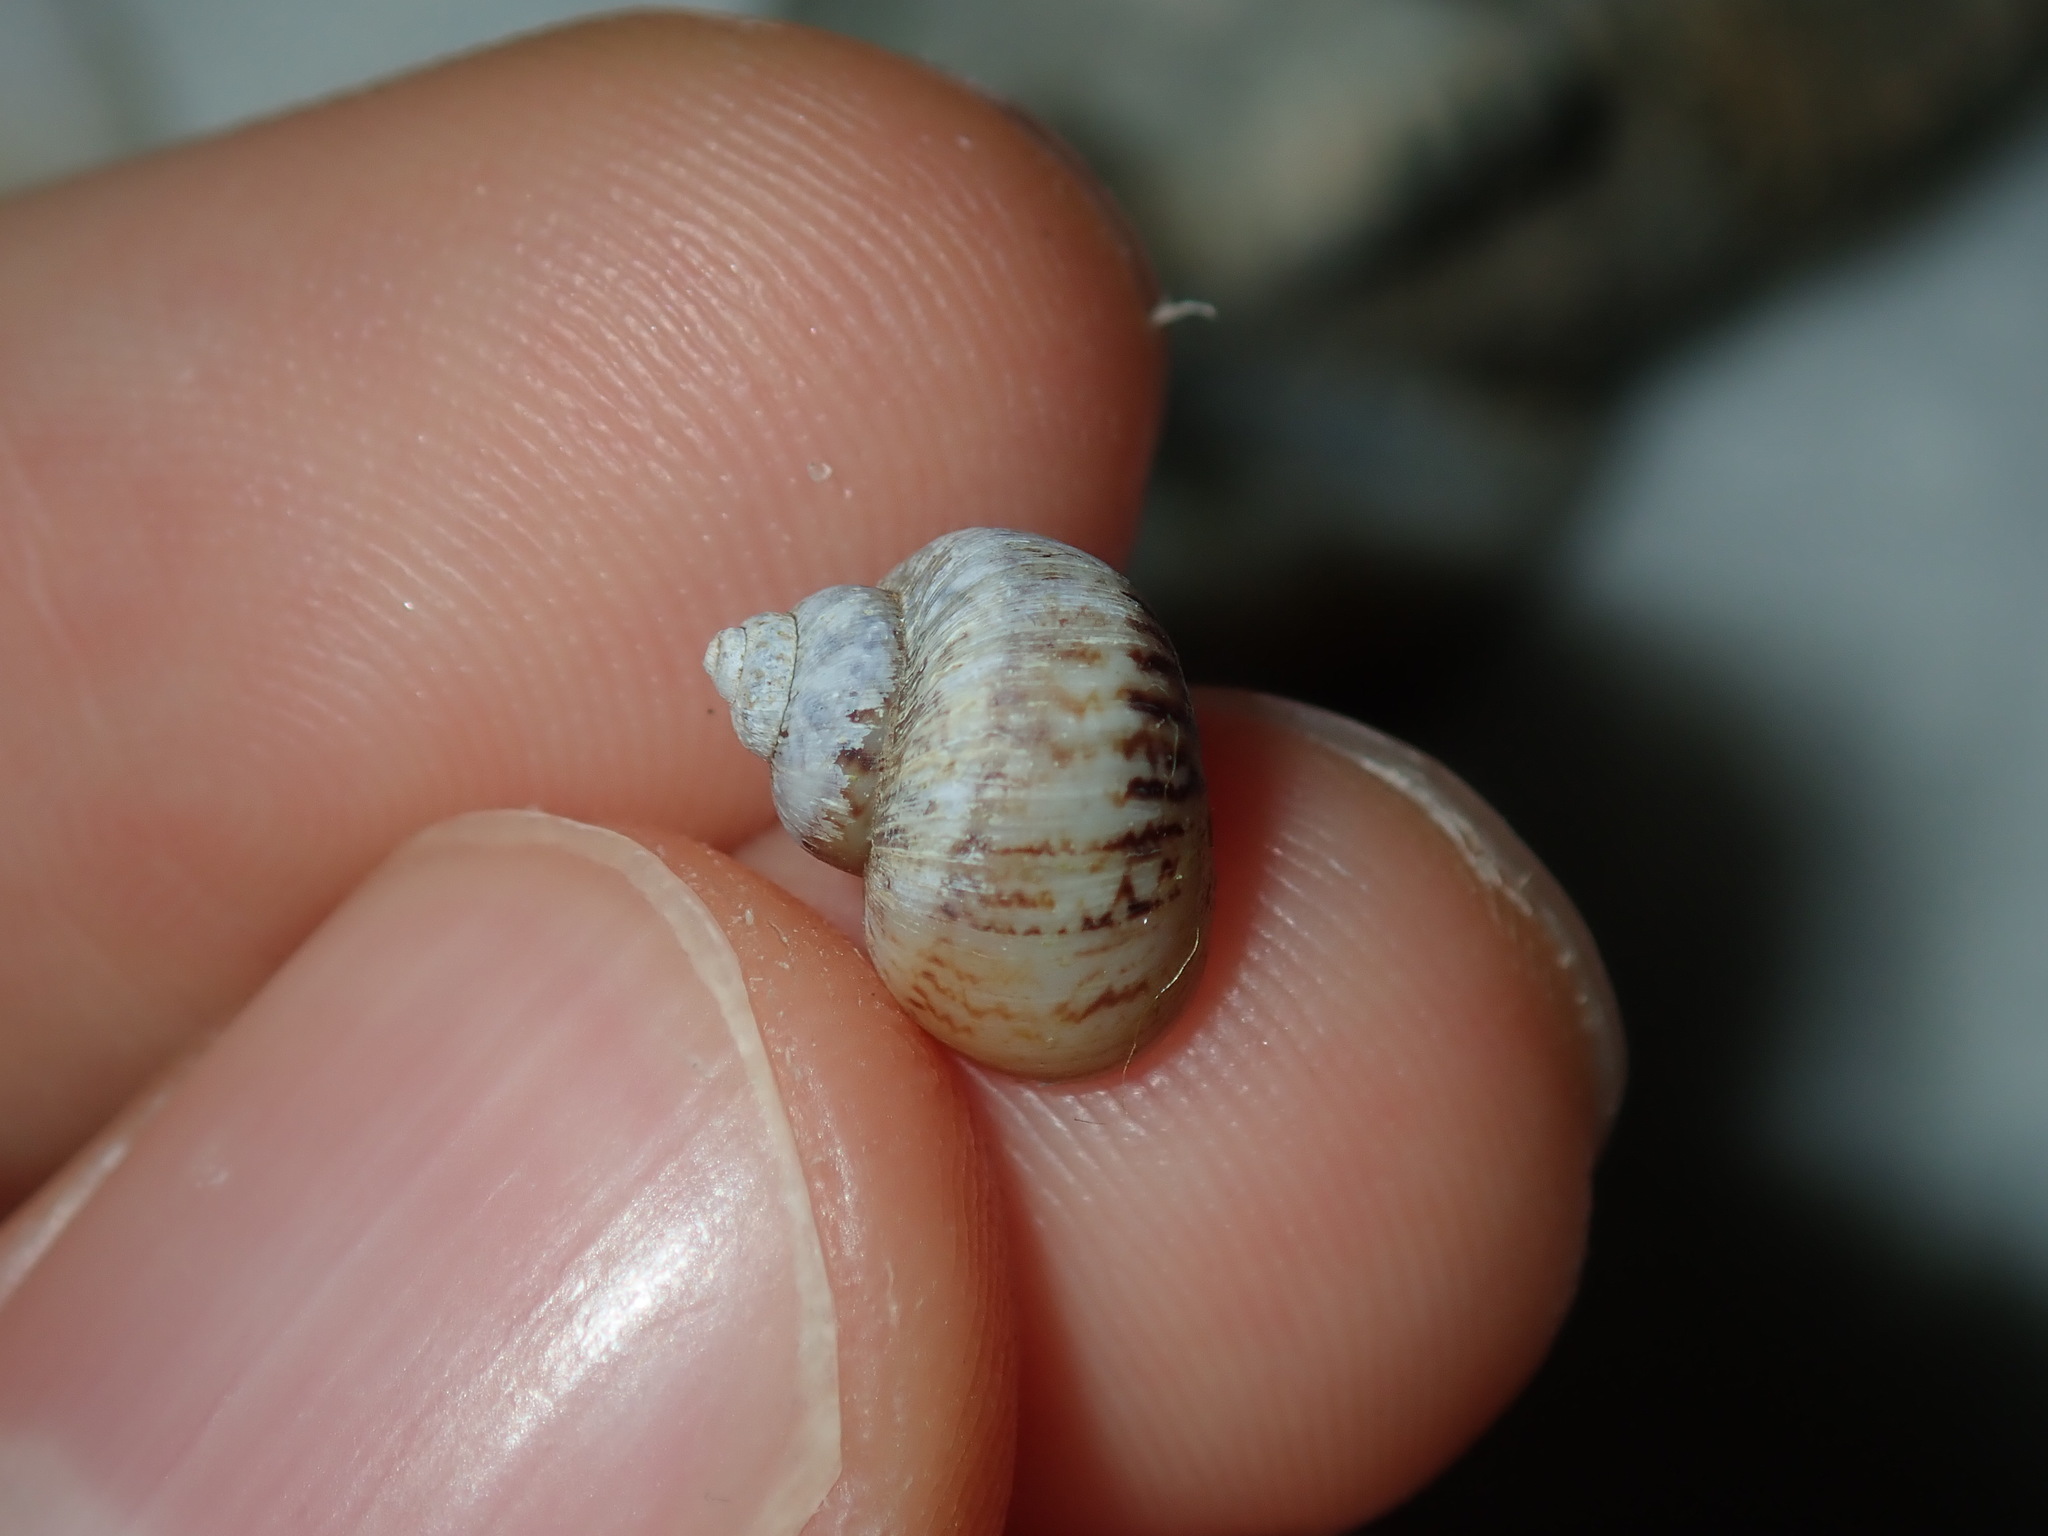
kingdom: Animalia
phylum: Mollusca
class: Gastropoda
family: Amphibolidae
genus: Phallomedusa
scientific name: Phallomedusa solida
